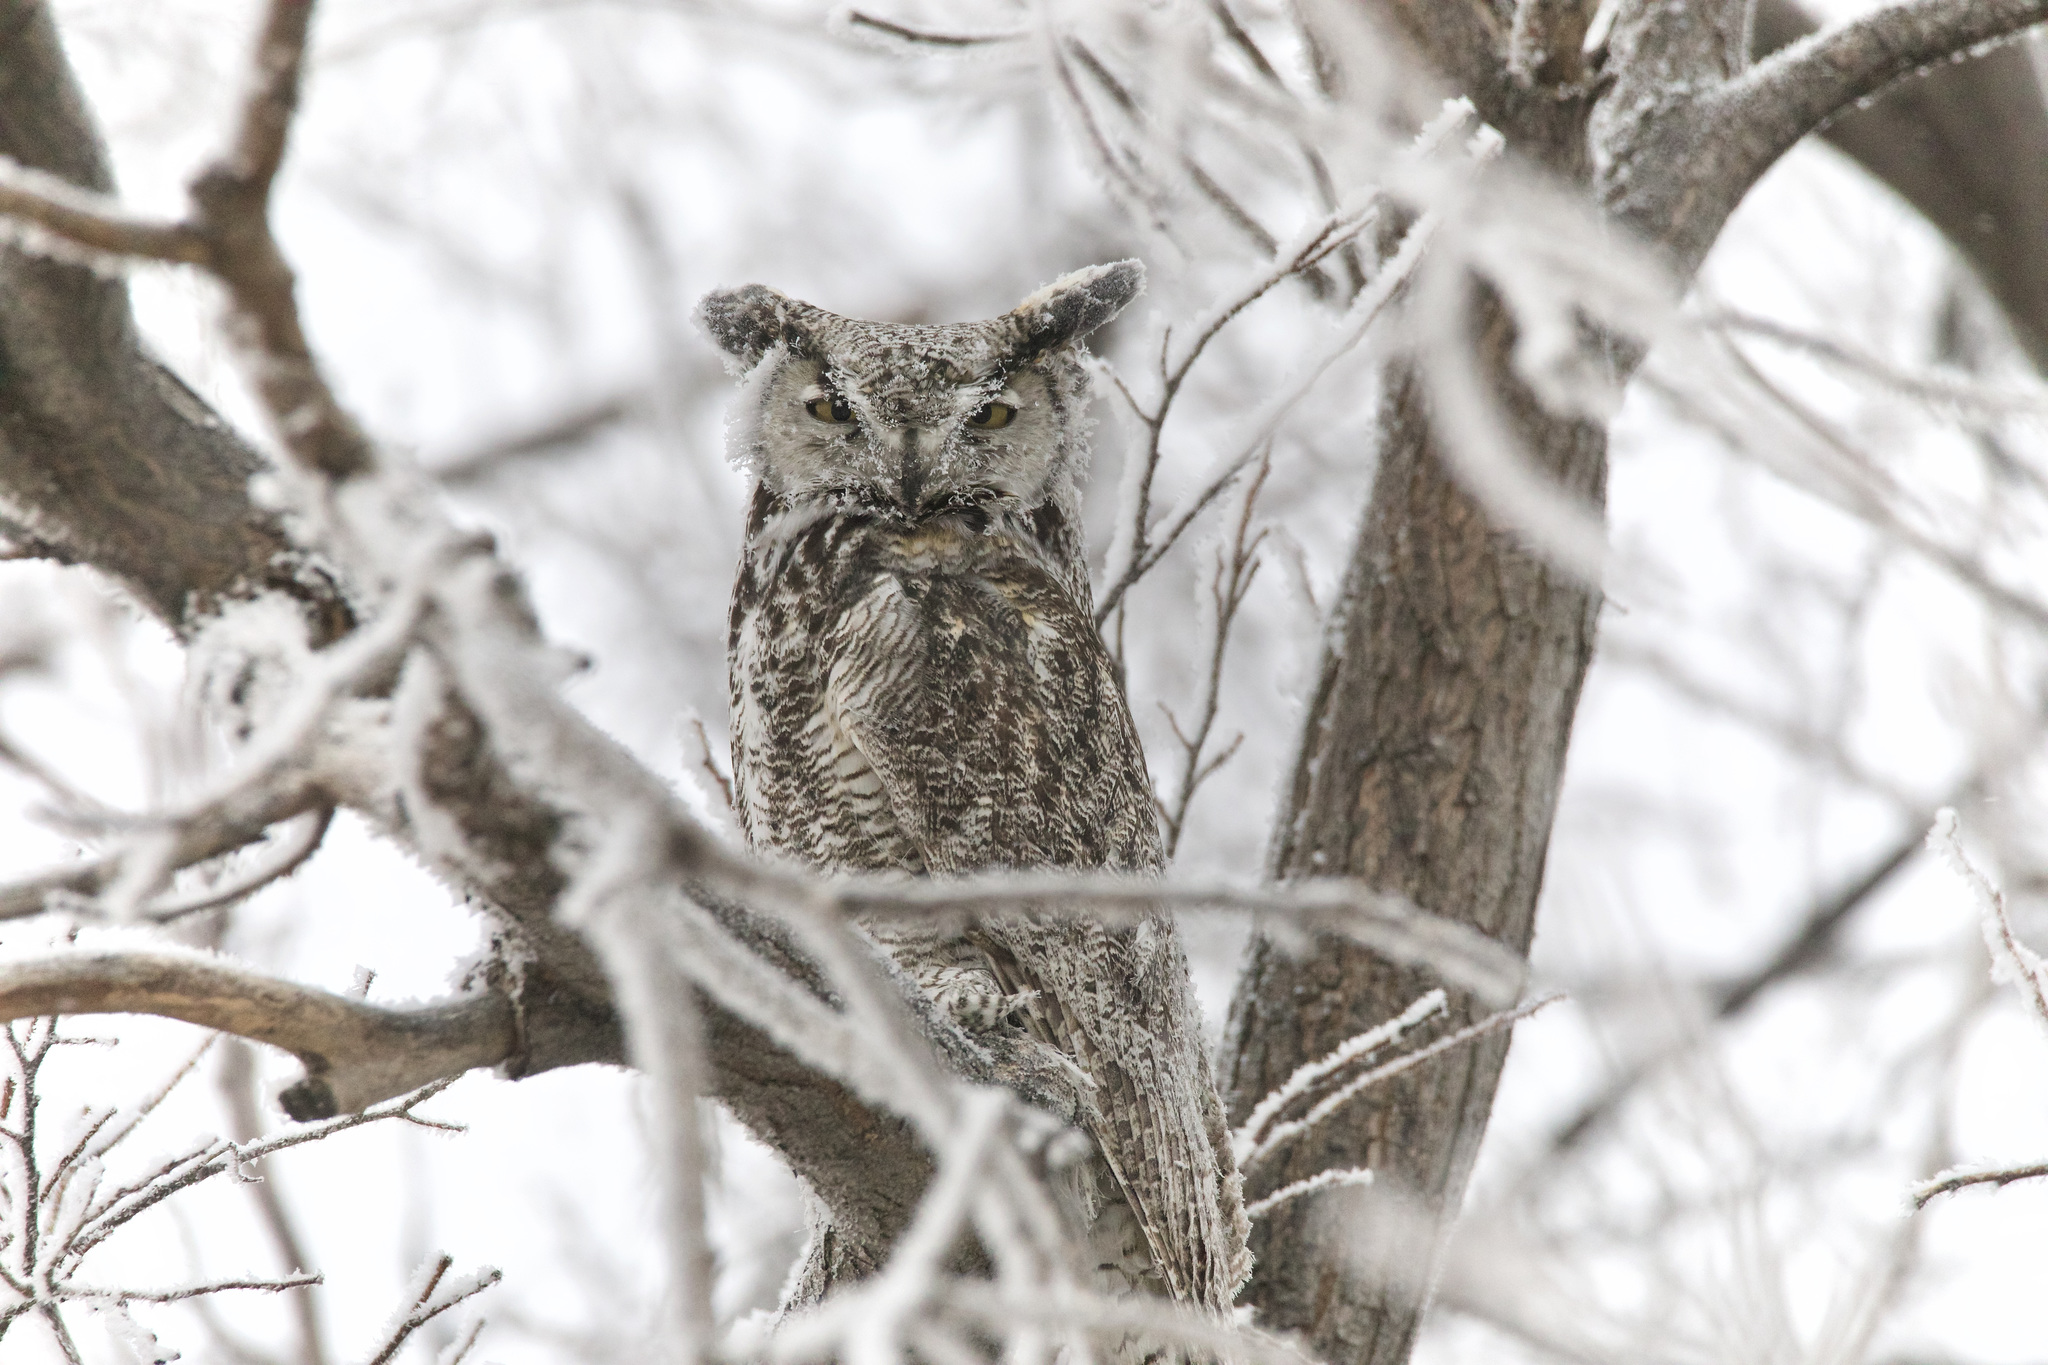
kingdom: Animalia
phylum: Chordata
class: Aves
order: Strigiformes
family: Strigidae
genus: Bubo
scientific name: Bubo virginianus
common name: Great horned owl
